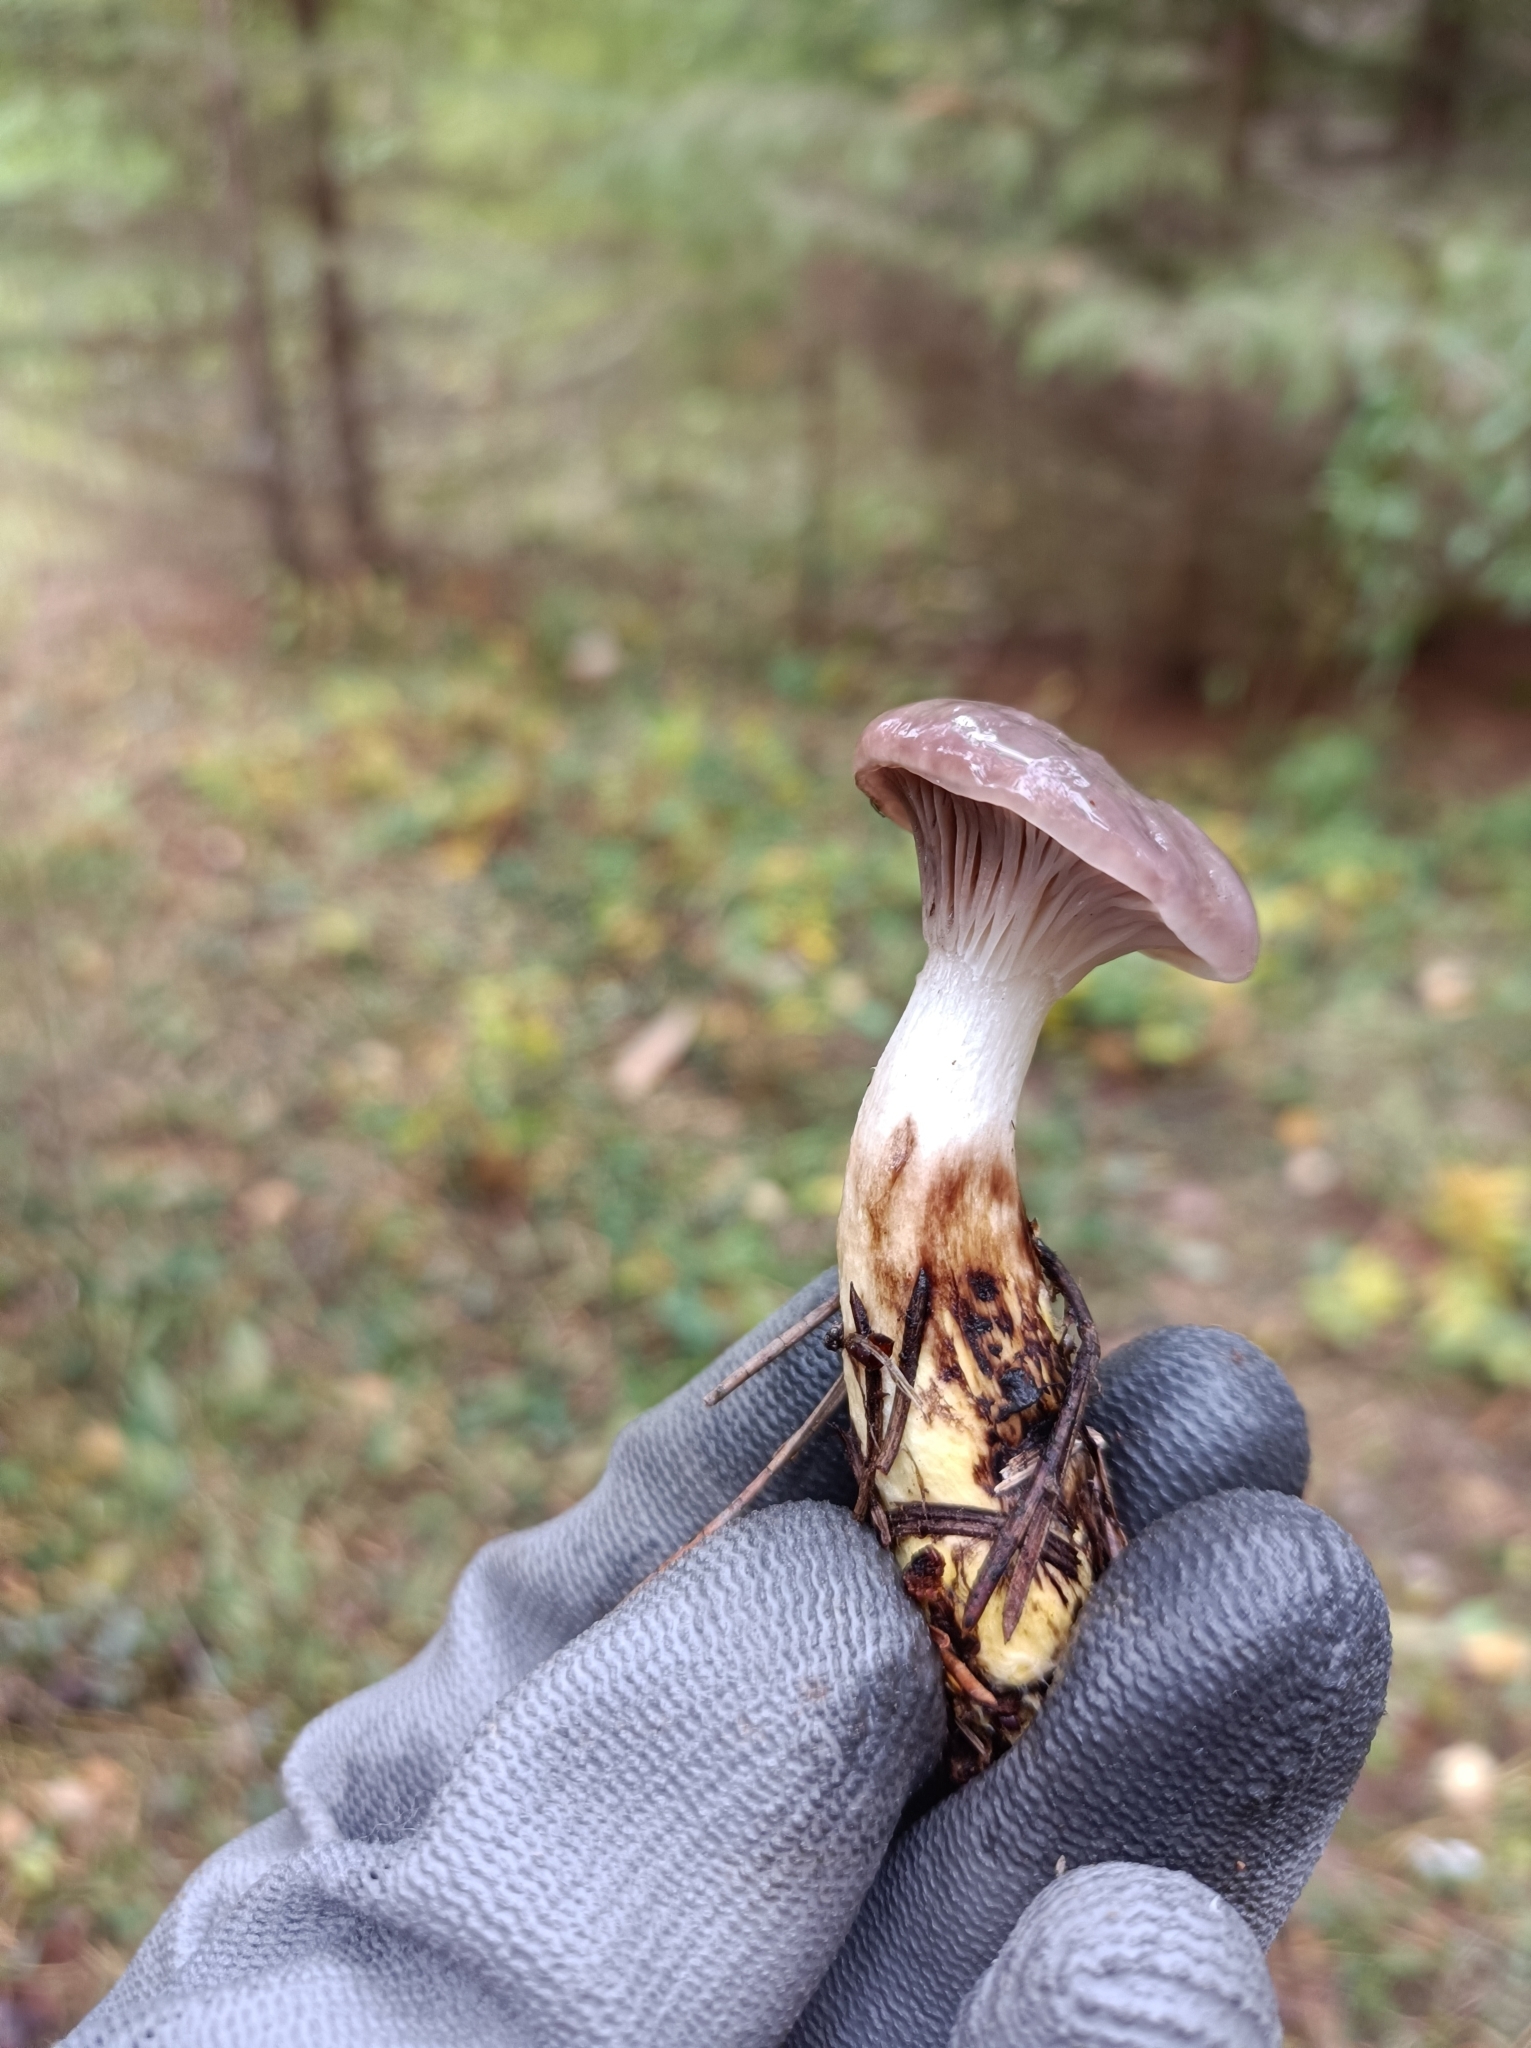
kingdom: Fungi
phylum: Basidiomycota
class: Agaricomycetes
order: Boletales
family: Gomphidiaceae
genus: Gomphidius
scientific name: Gomphidius glutinosus
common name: Slimy spike
